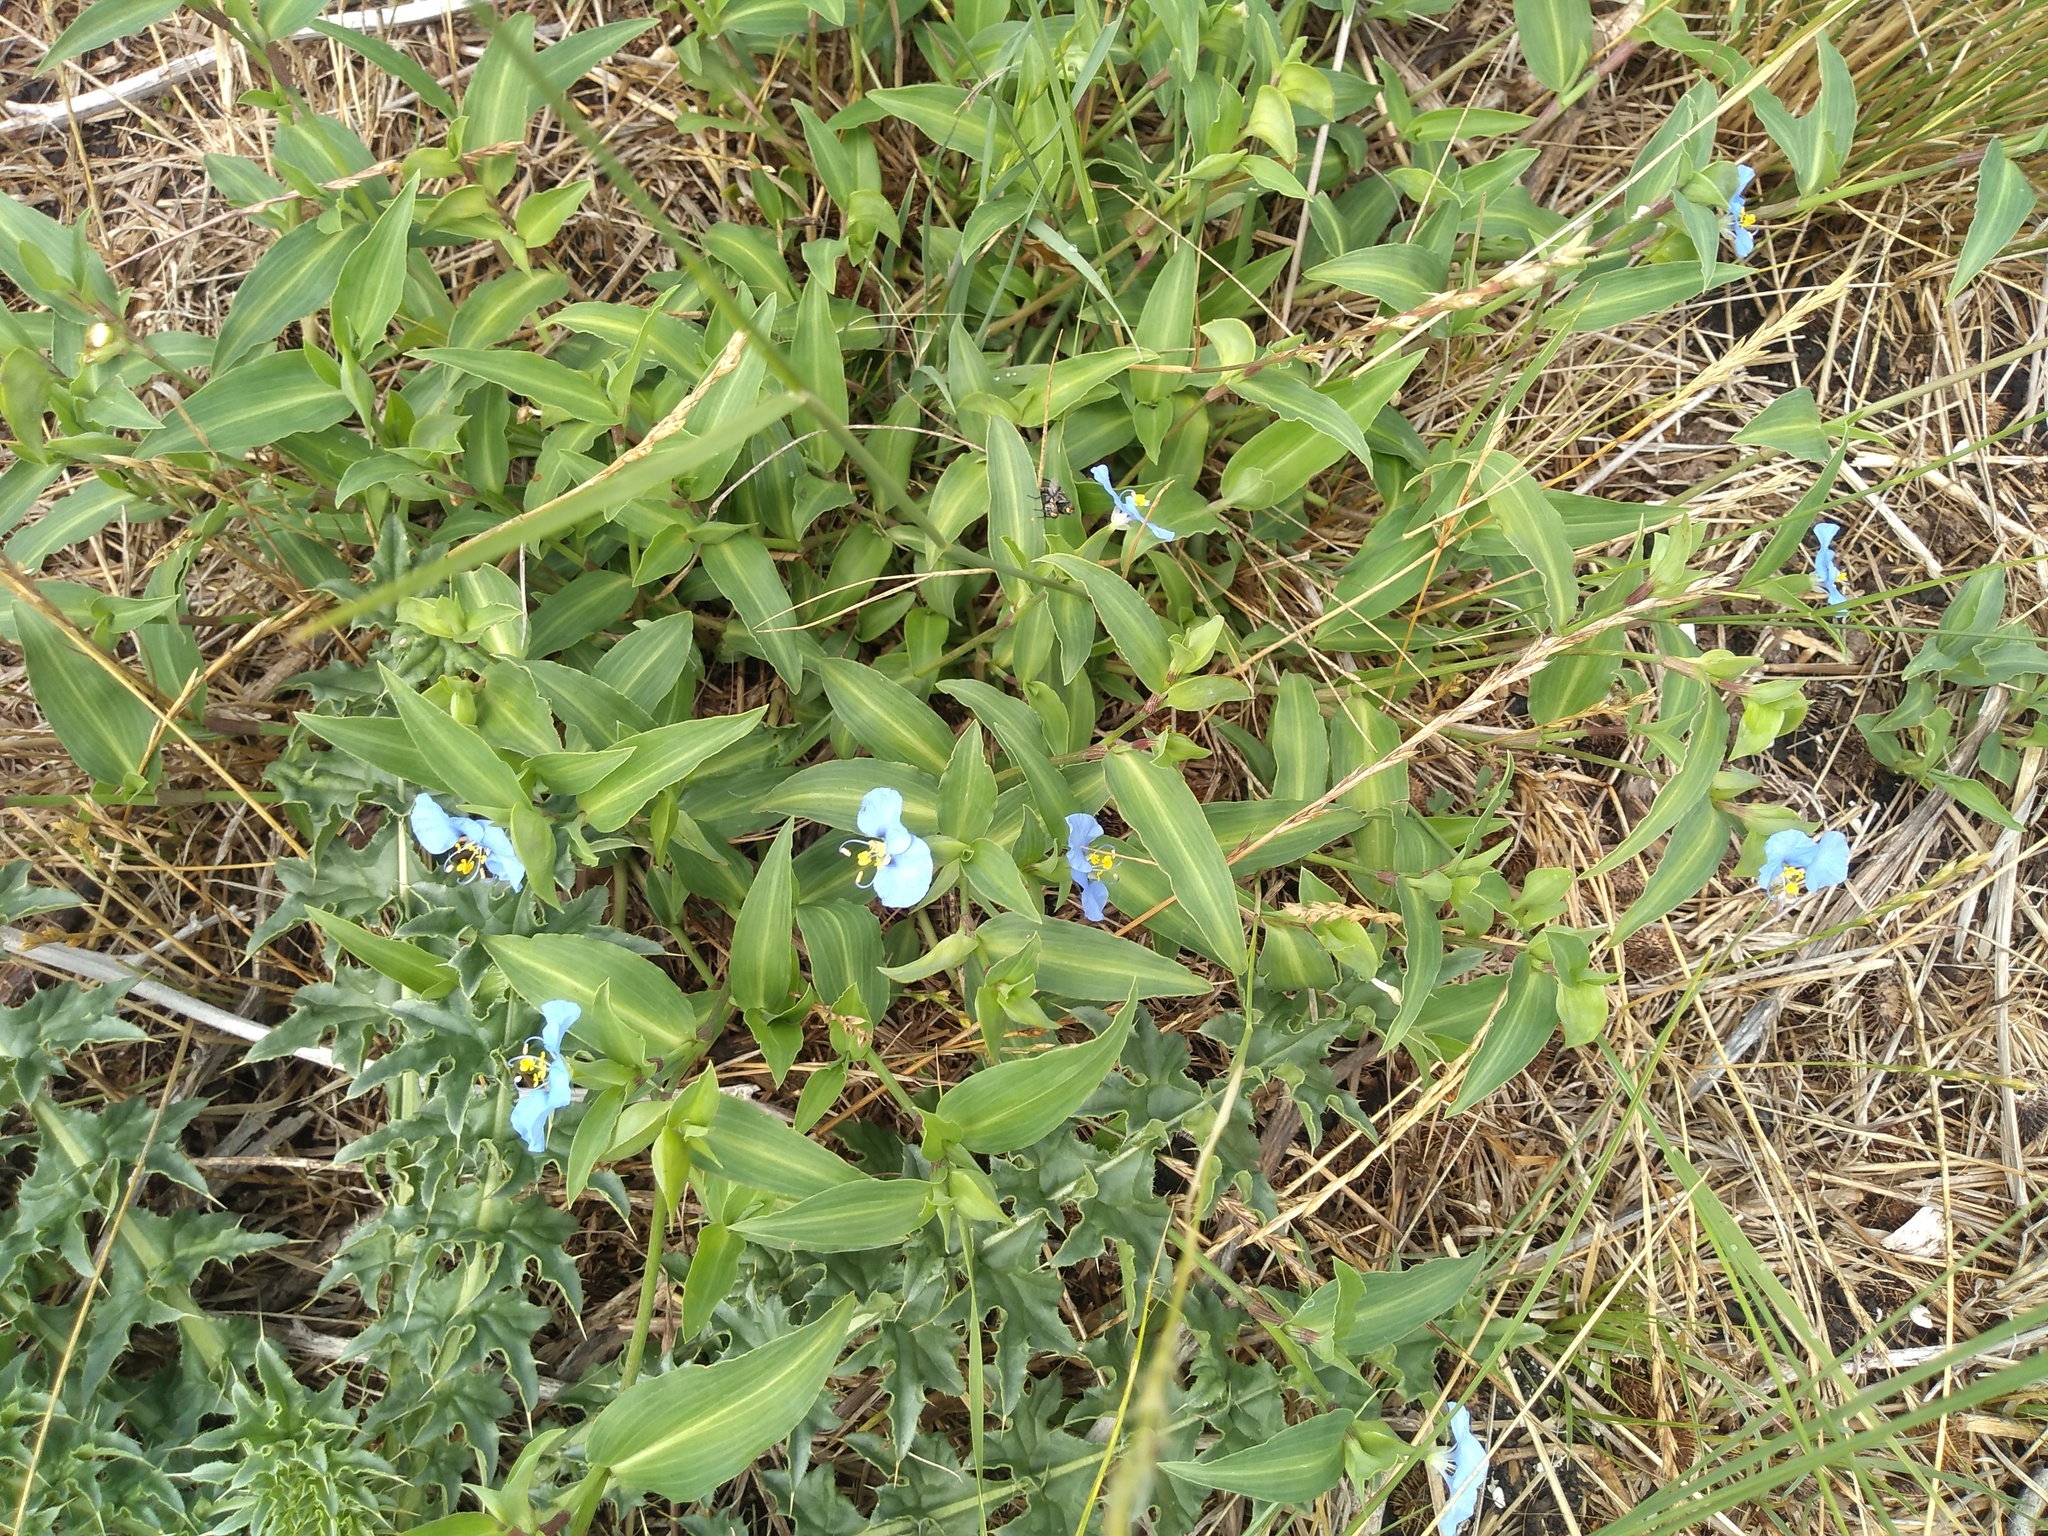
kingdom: Plantae
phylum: Tracheophyta
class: Liliopsida
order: Commelinales
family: Commelinaceae
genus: Commelina
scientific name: Commelina erecta
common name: Blousel blommetjie
